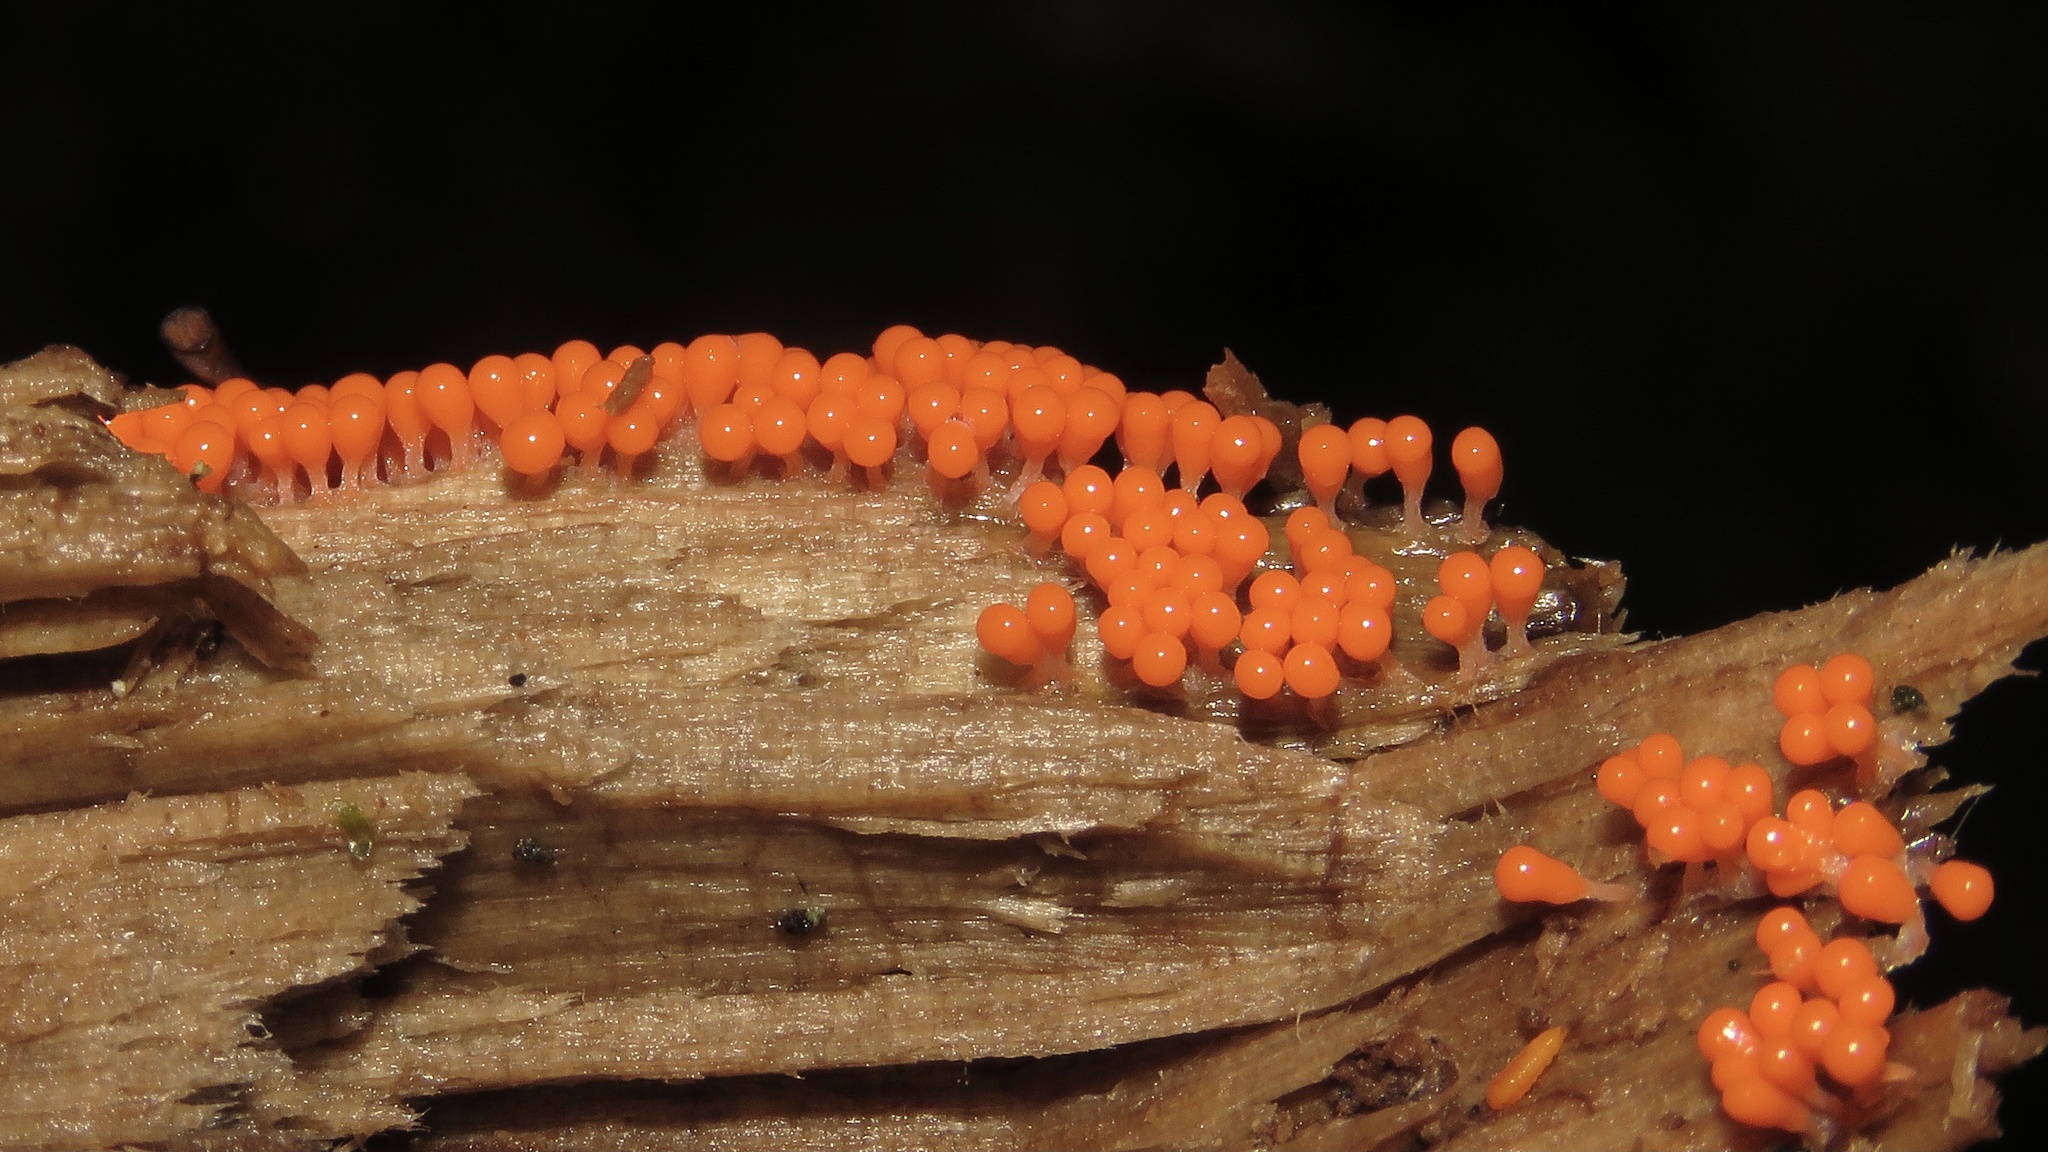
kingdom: Protozoa
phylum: Mycetozoa
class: Myxomycetes
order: Trichiales
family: Arcyriaceae
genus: Hemitrichia
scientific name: Hemitrichia decipiens
